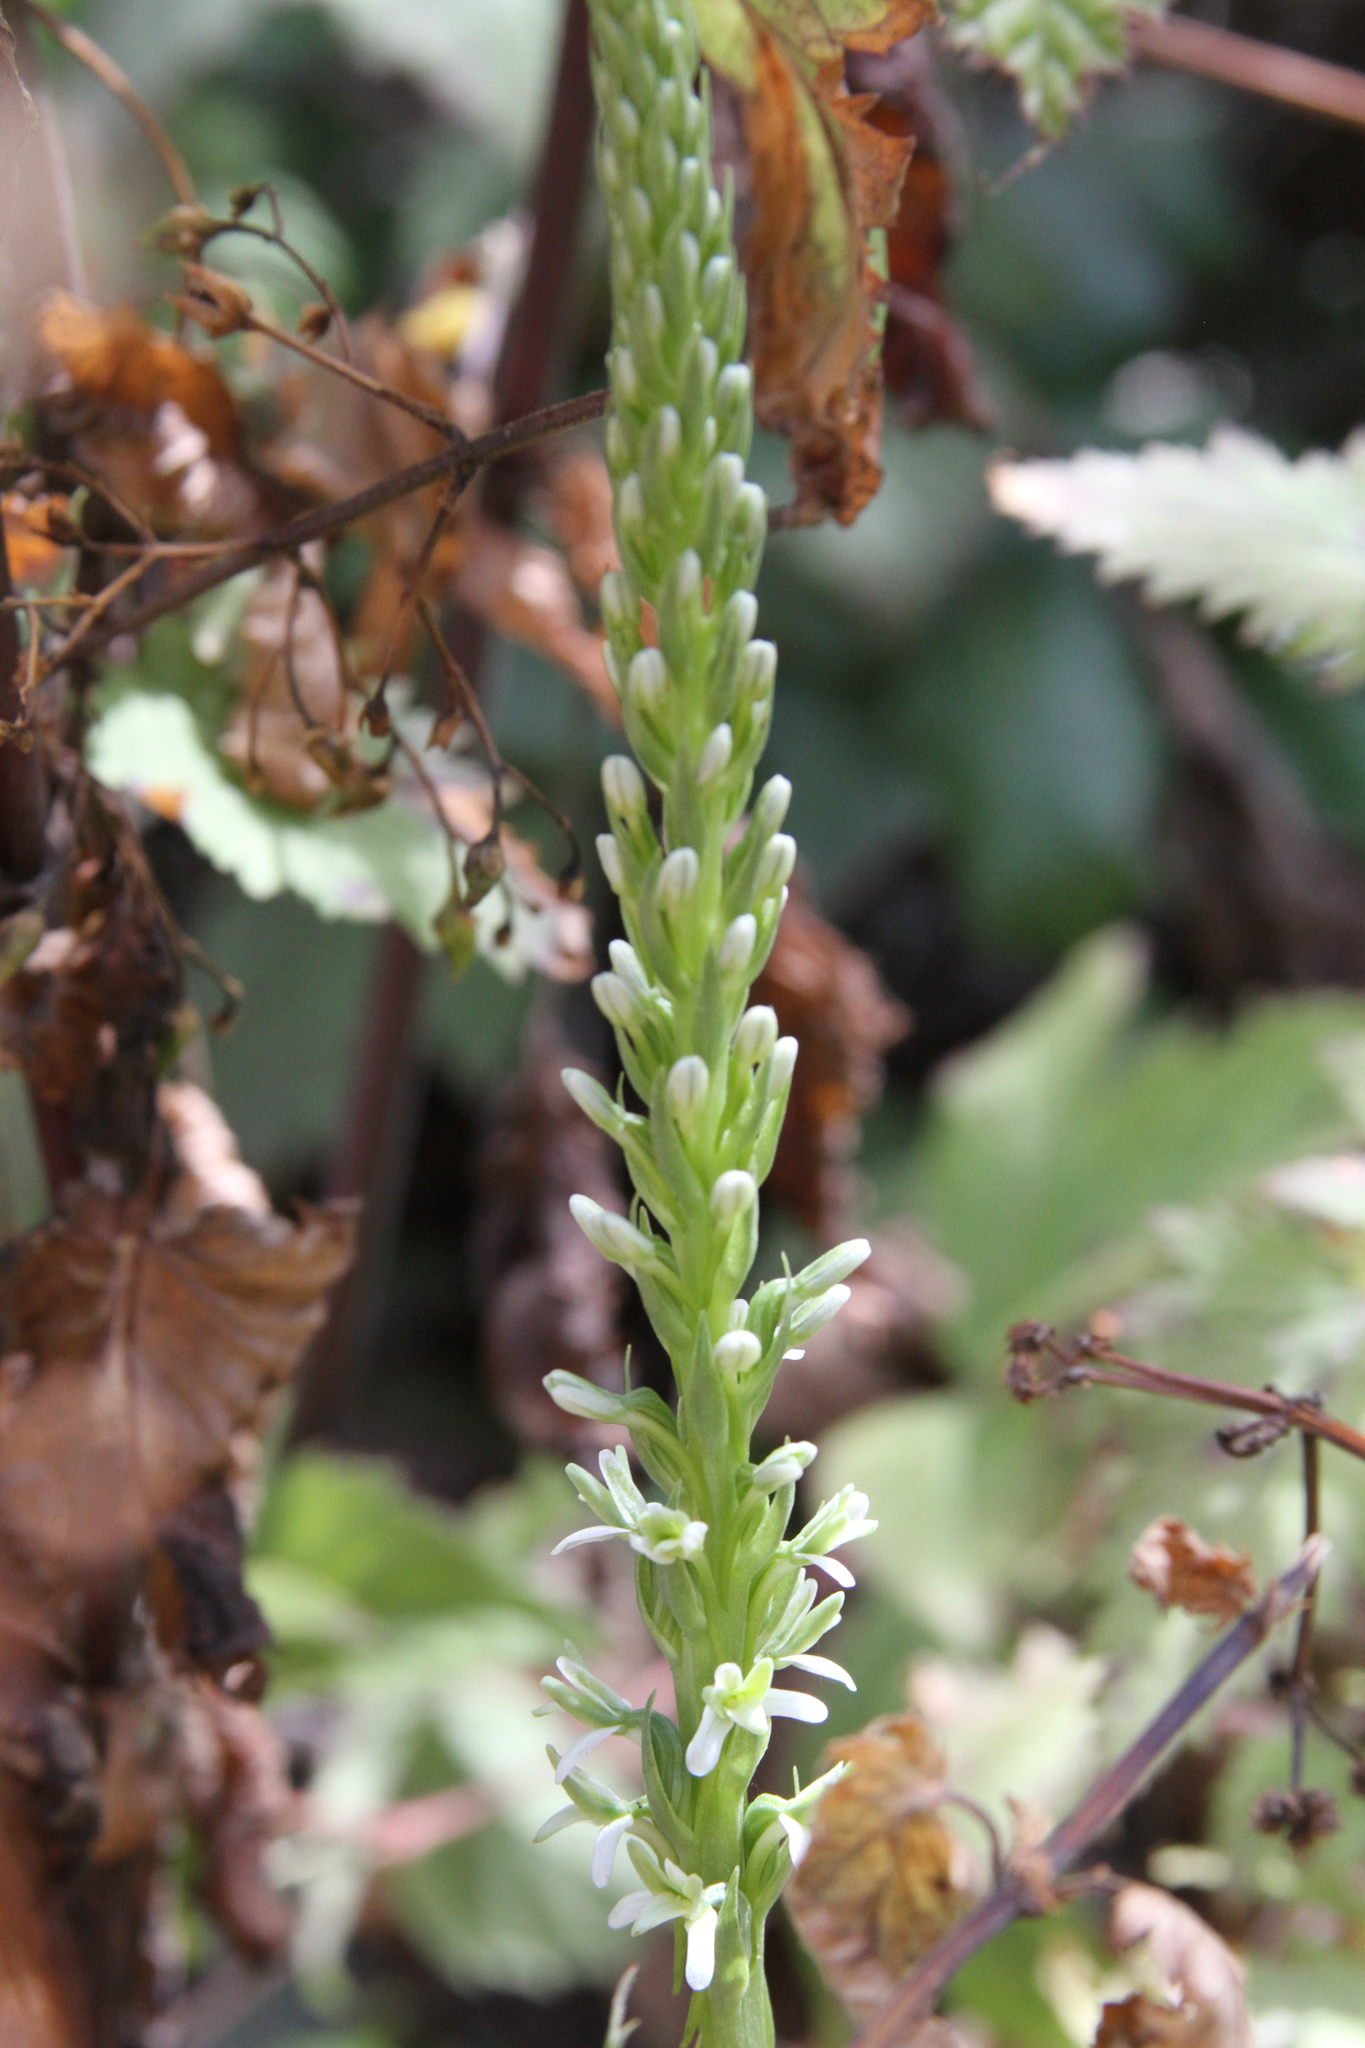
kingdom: Plantae
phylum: Tracheophyta
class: Liliopsida
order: Asparagales
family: Orchidaceae
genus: Platanthera
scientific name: Platanthera elegans
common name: Coast piperia
